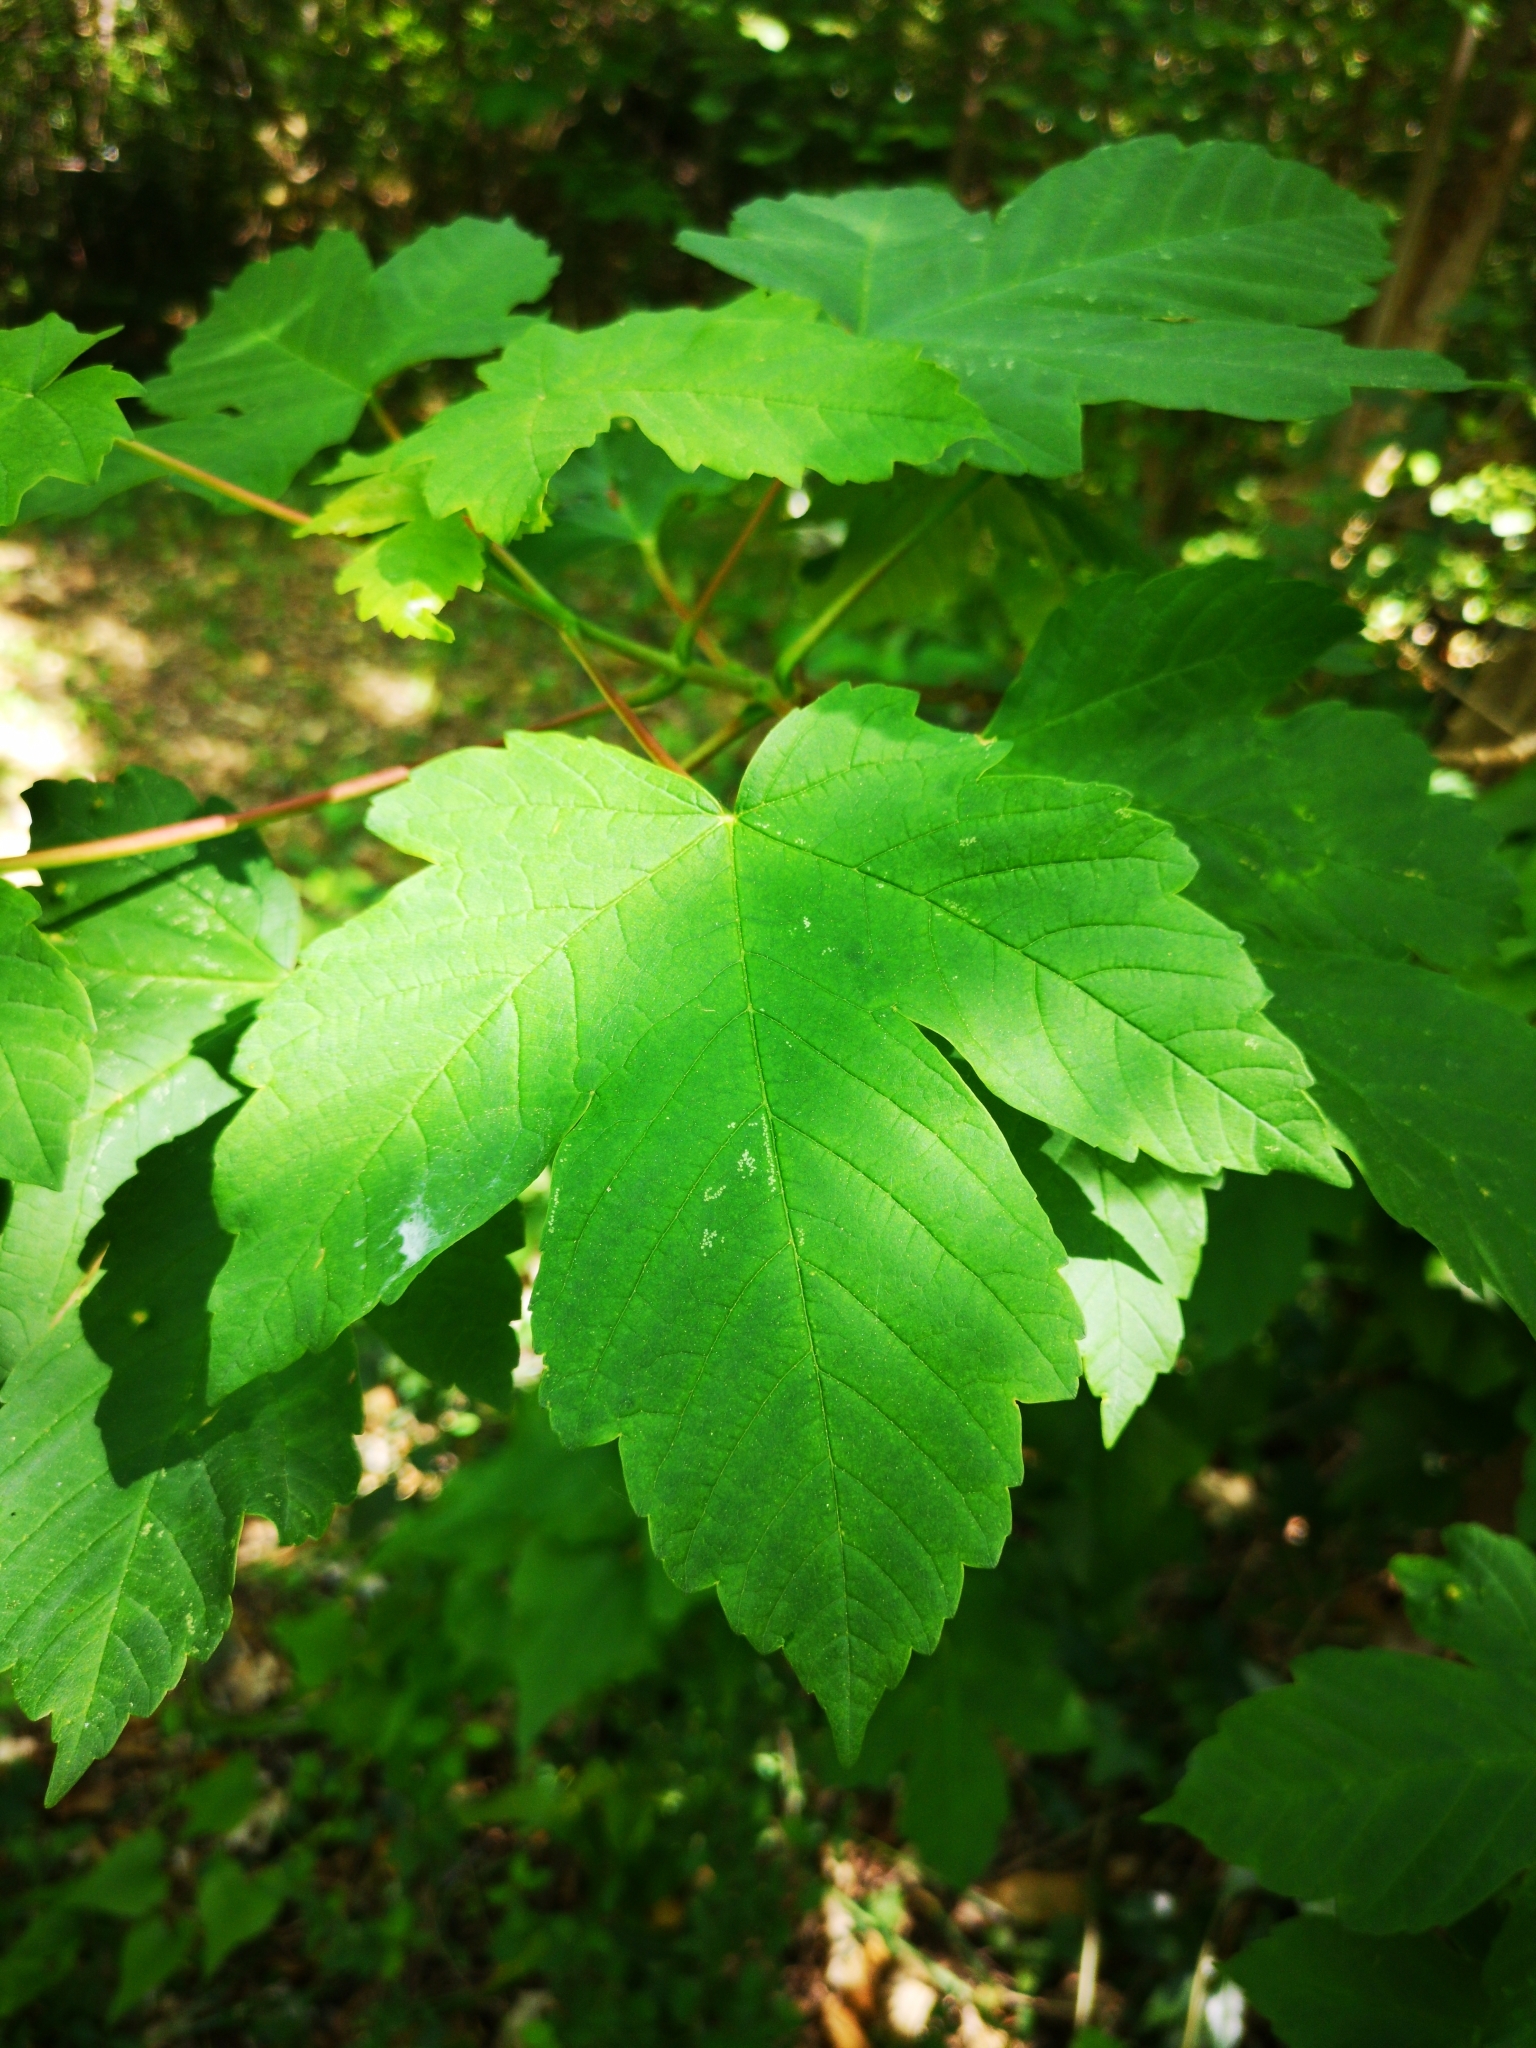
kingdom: Plantae
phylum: Tracheophyta
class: Magnoliopsida
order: Sapindales
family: Sapindaceae
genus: Acer
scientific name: Acer pseudoplatanus
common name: Sycamore
